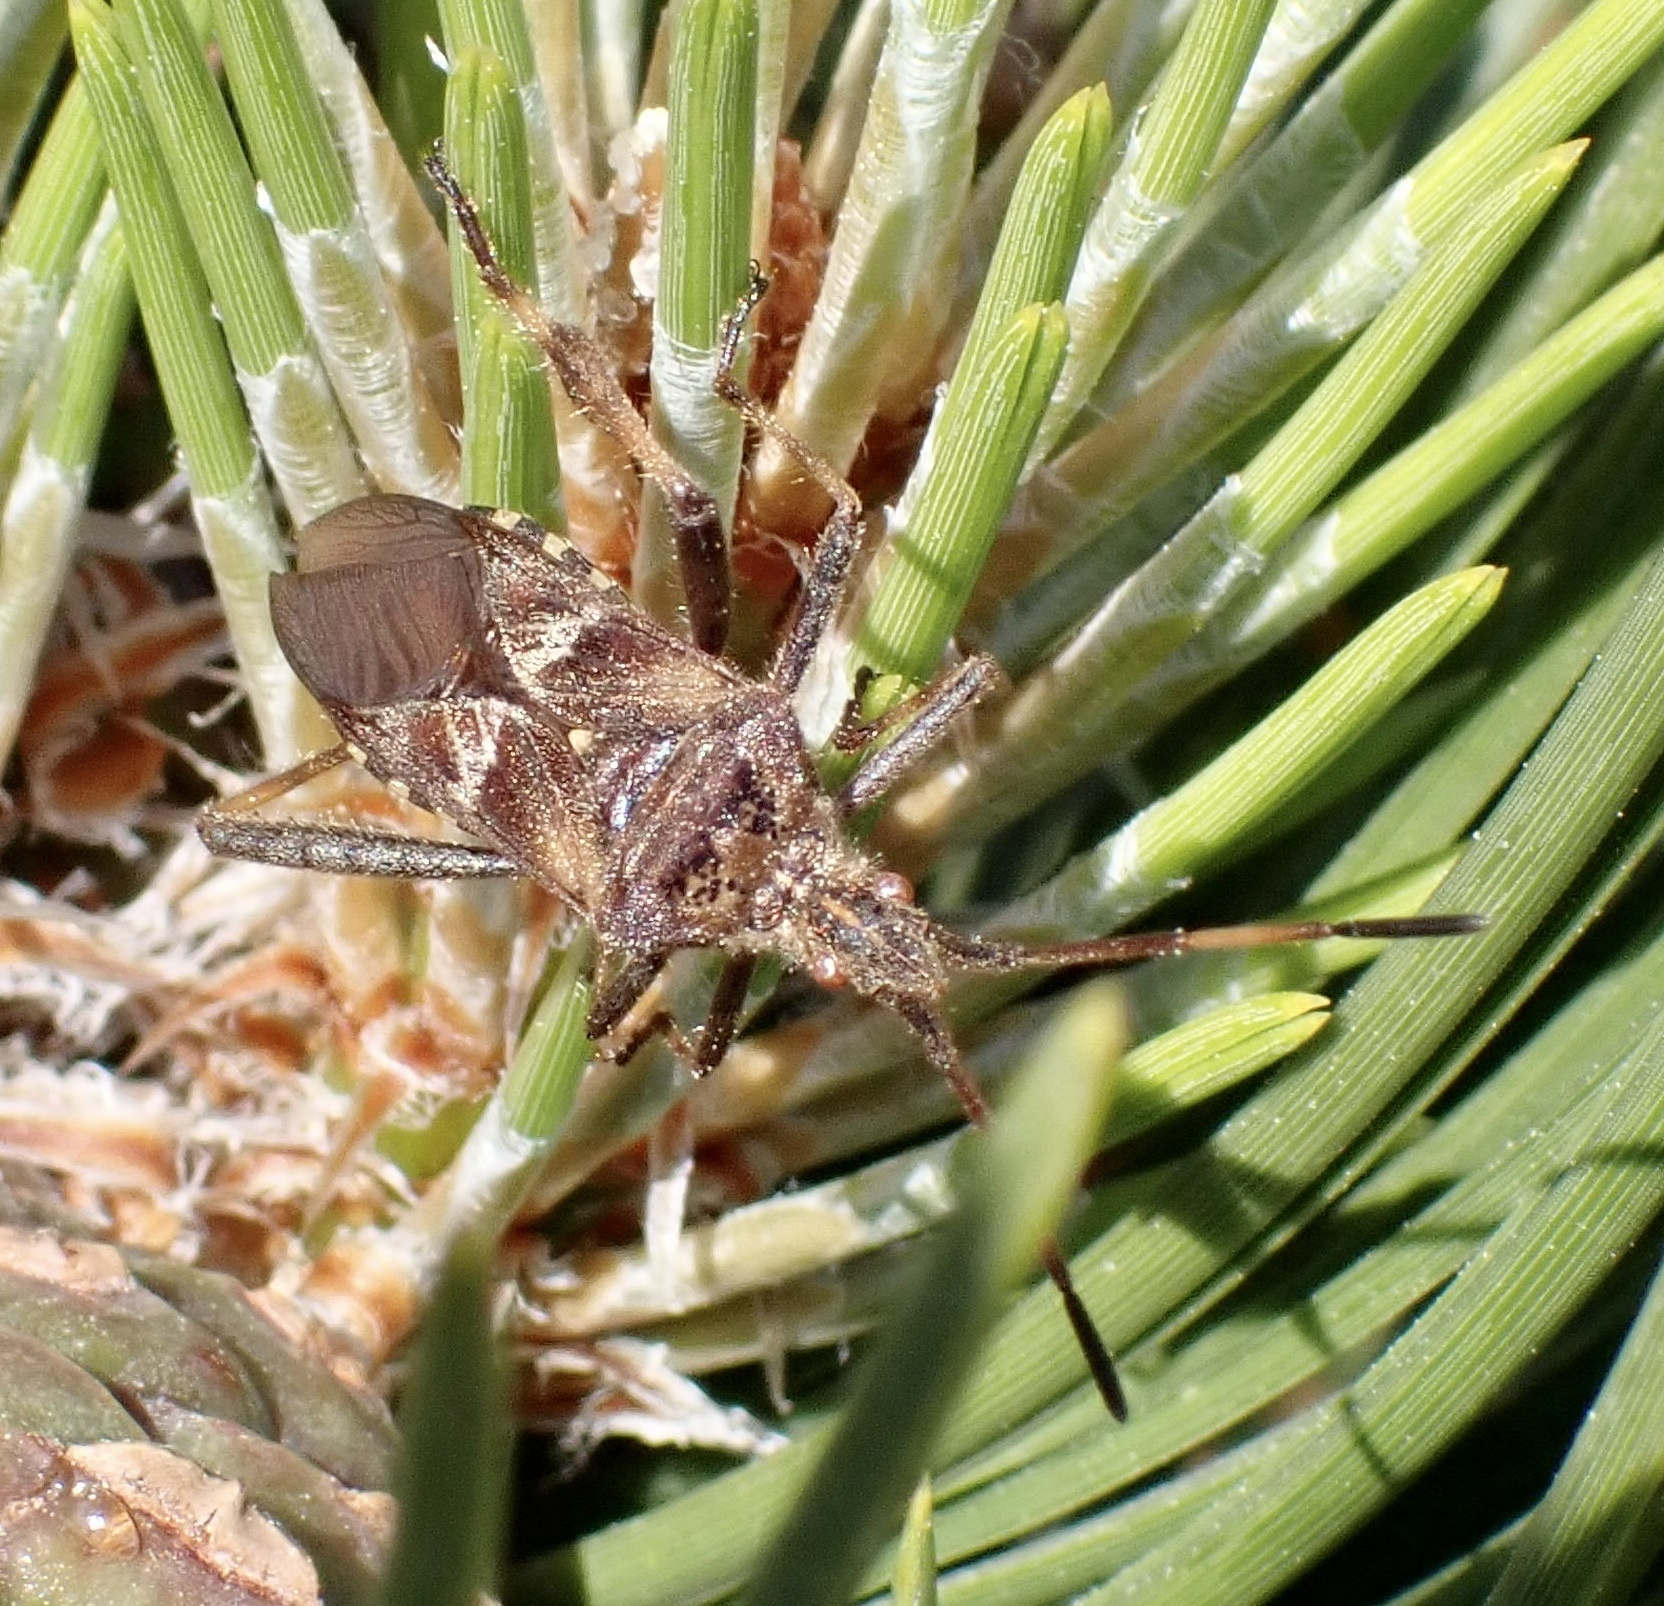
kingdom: Animalia
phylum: Arthropoda
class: Insecta
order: Hemiptera
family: Coreidae
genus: Leptoglossus
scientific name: Leptoglossus occidentalis
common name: Western conifer-seed bug
